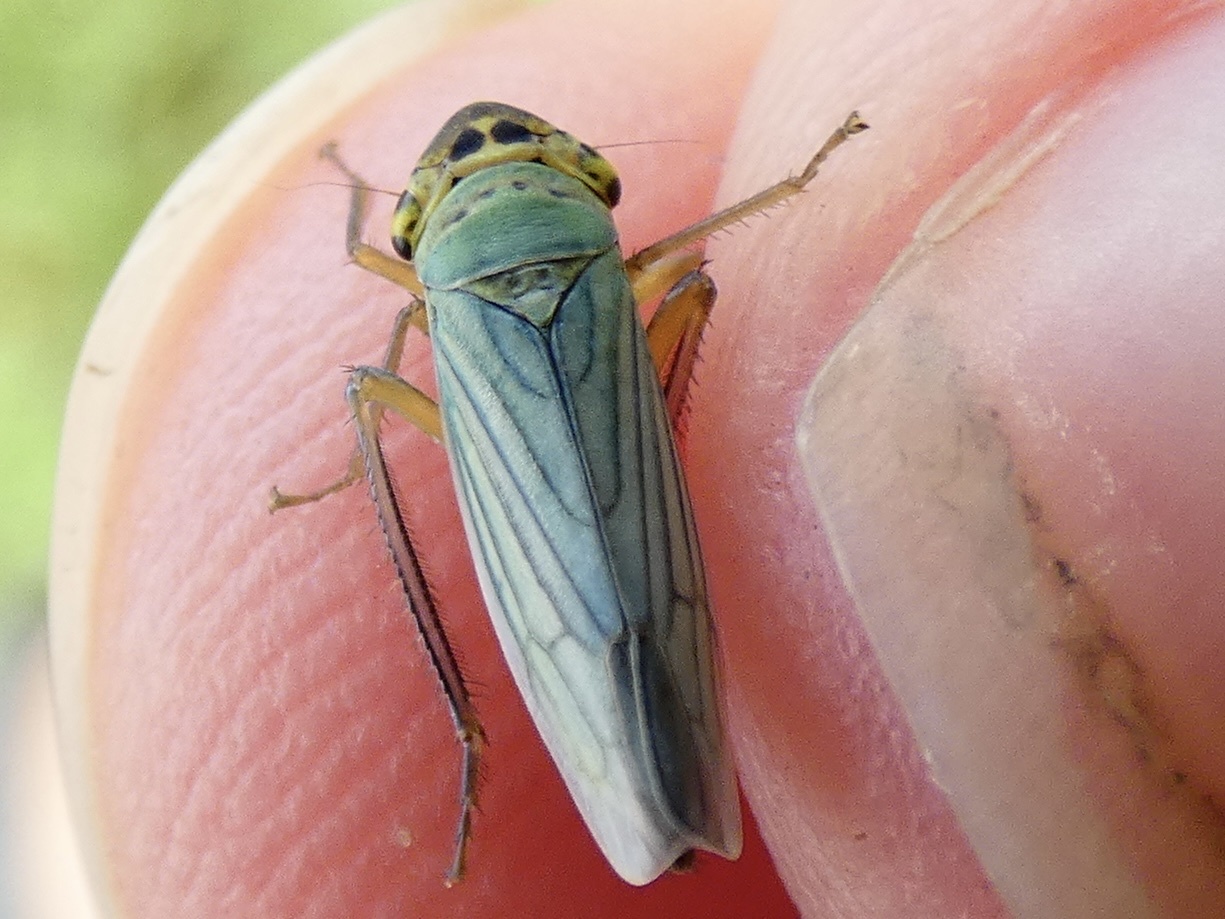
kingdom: Animalia
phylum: Arthropoda
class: Insecta
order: Hemiptera
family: Cicadellidae
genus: Cicadella
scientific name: Cicadella viridis
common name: Leafhopper
